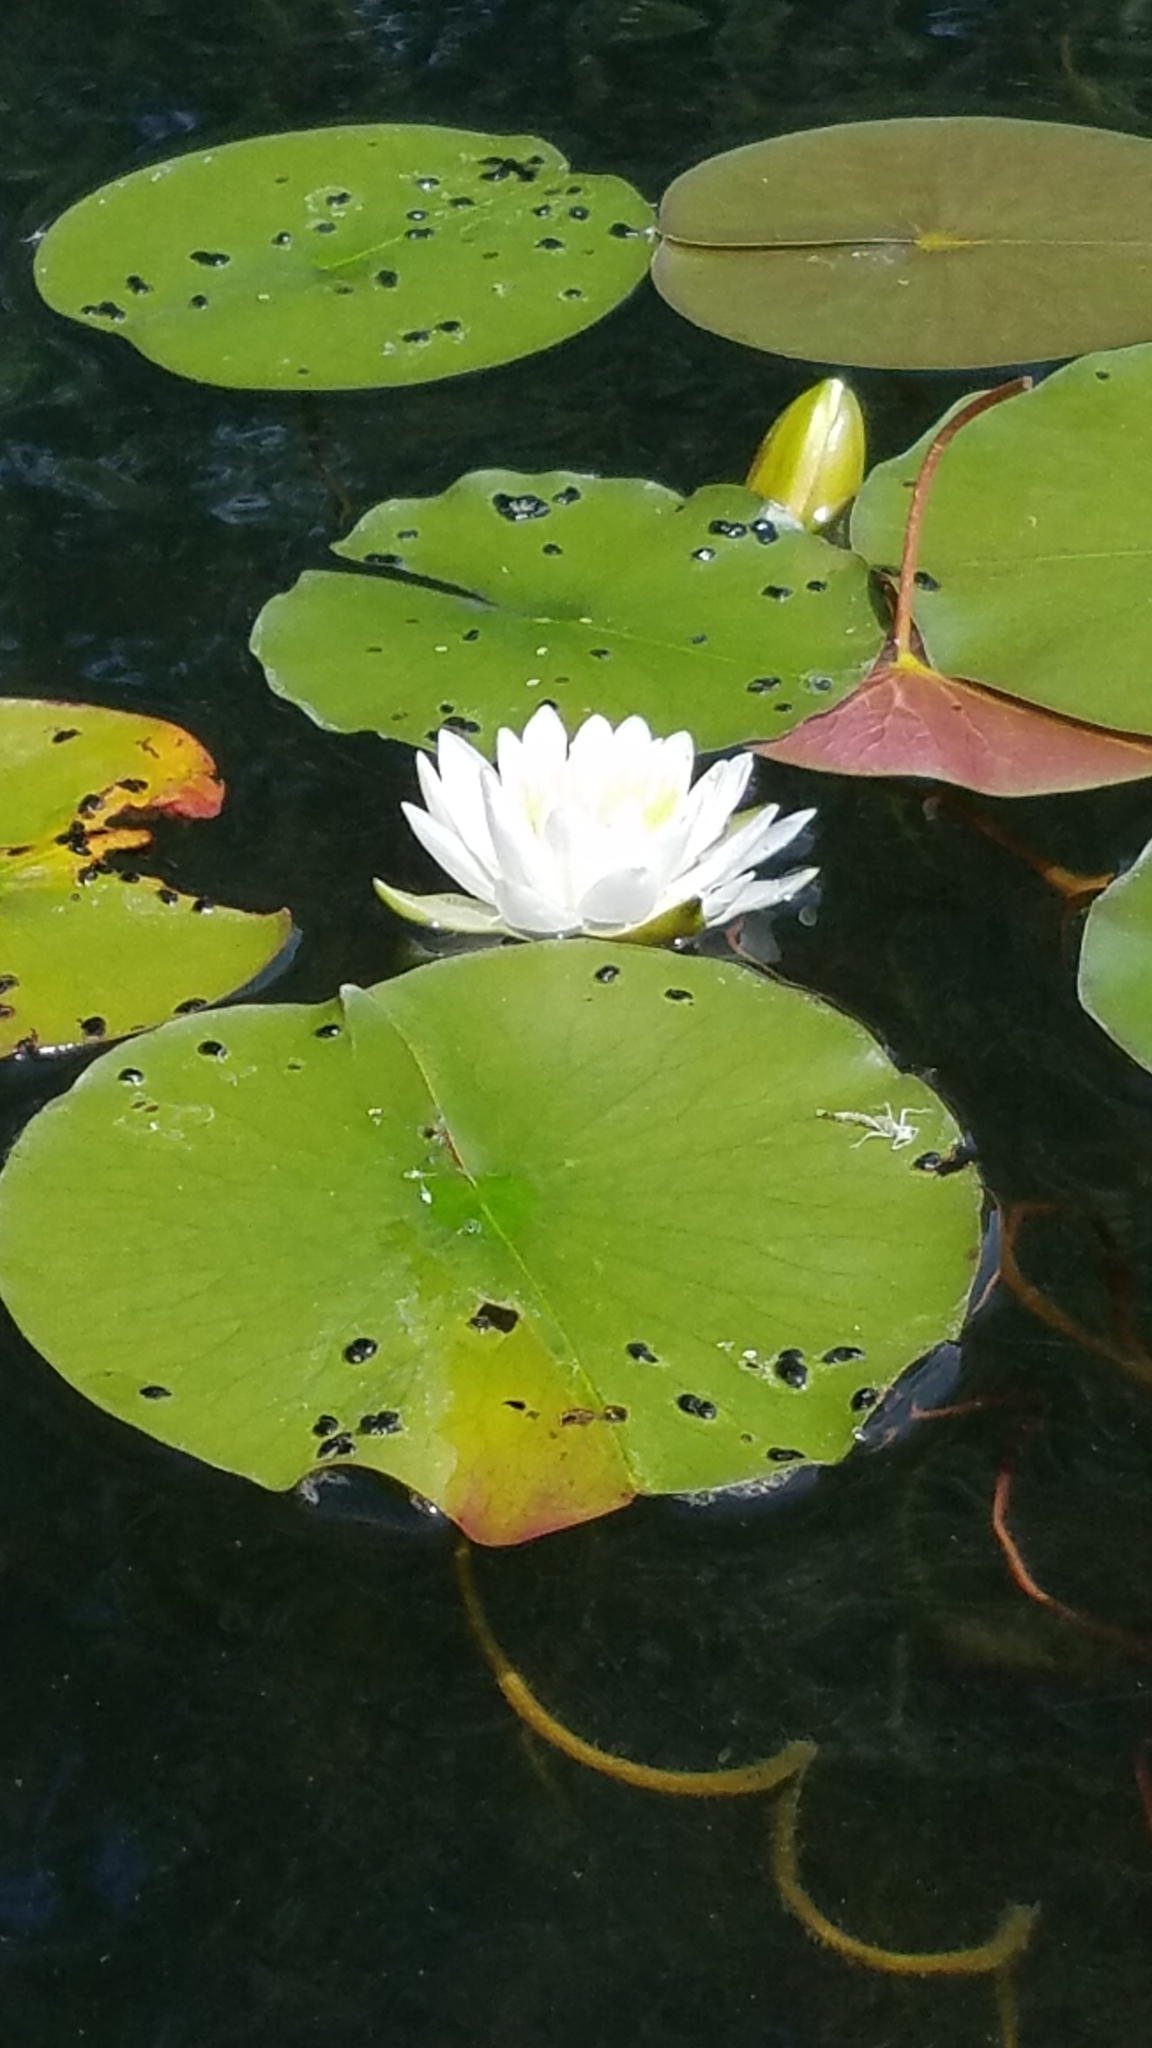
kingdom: Plantae
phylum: Tracheophyta
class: Magnoliopsida
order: Nymphaeales
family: Nymphaeaceae
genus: Nymphaea
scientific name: Nymphaea odorata
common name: Fragrant water-lily
